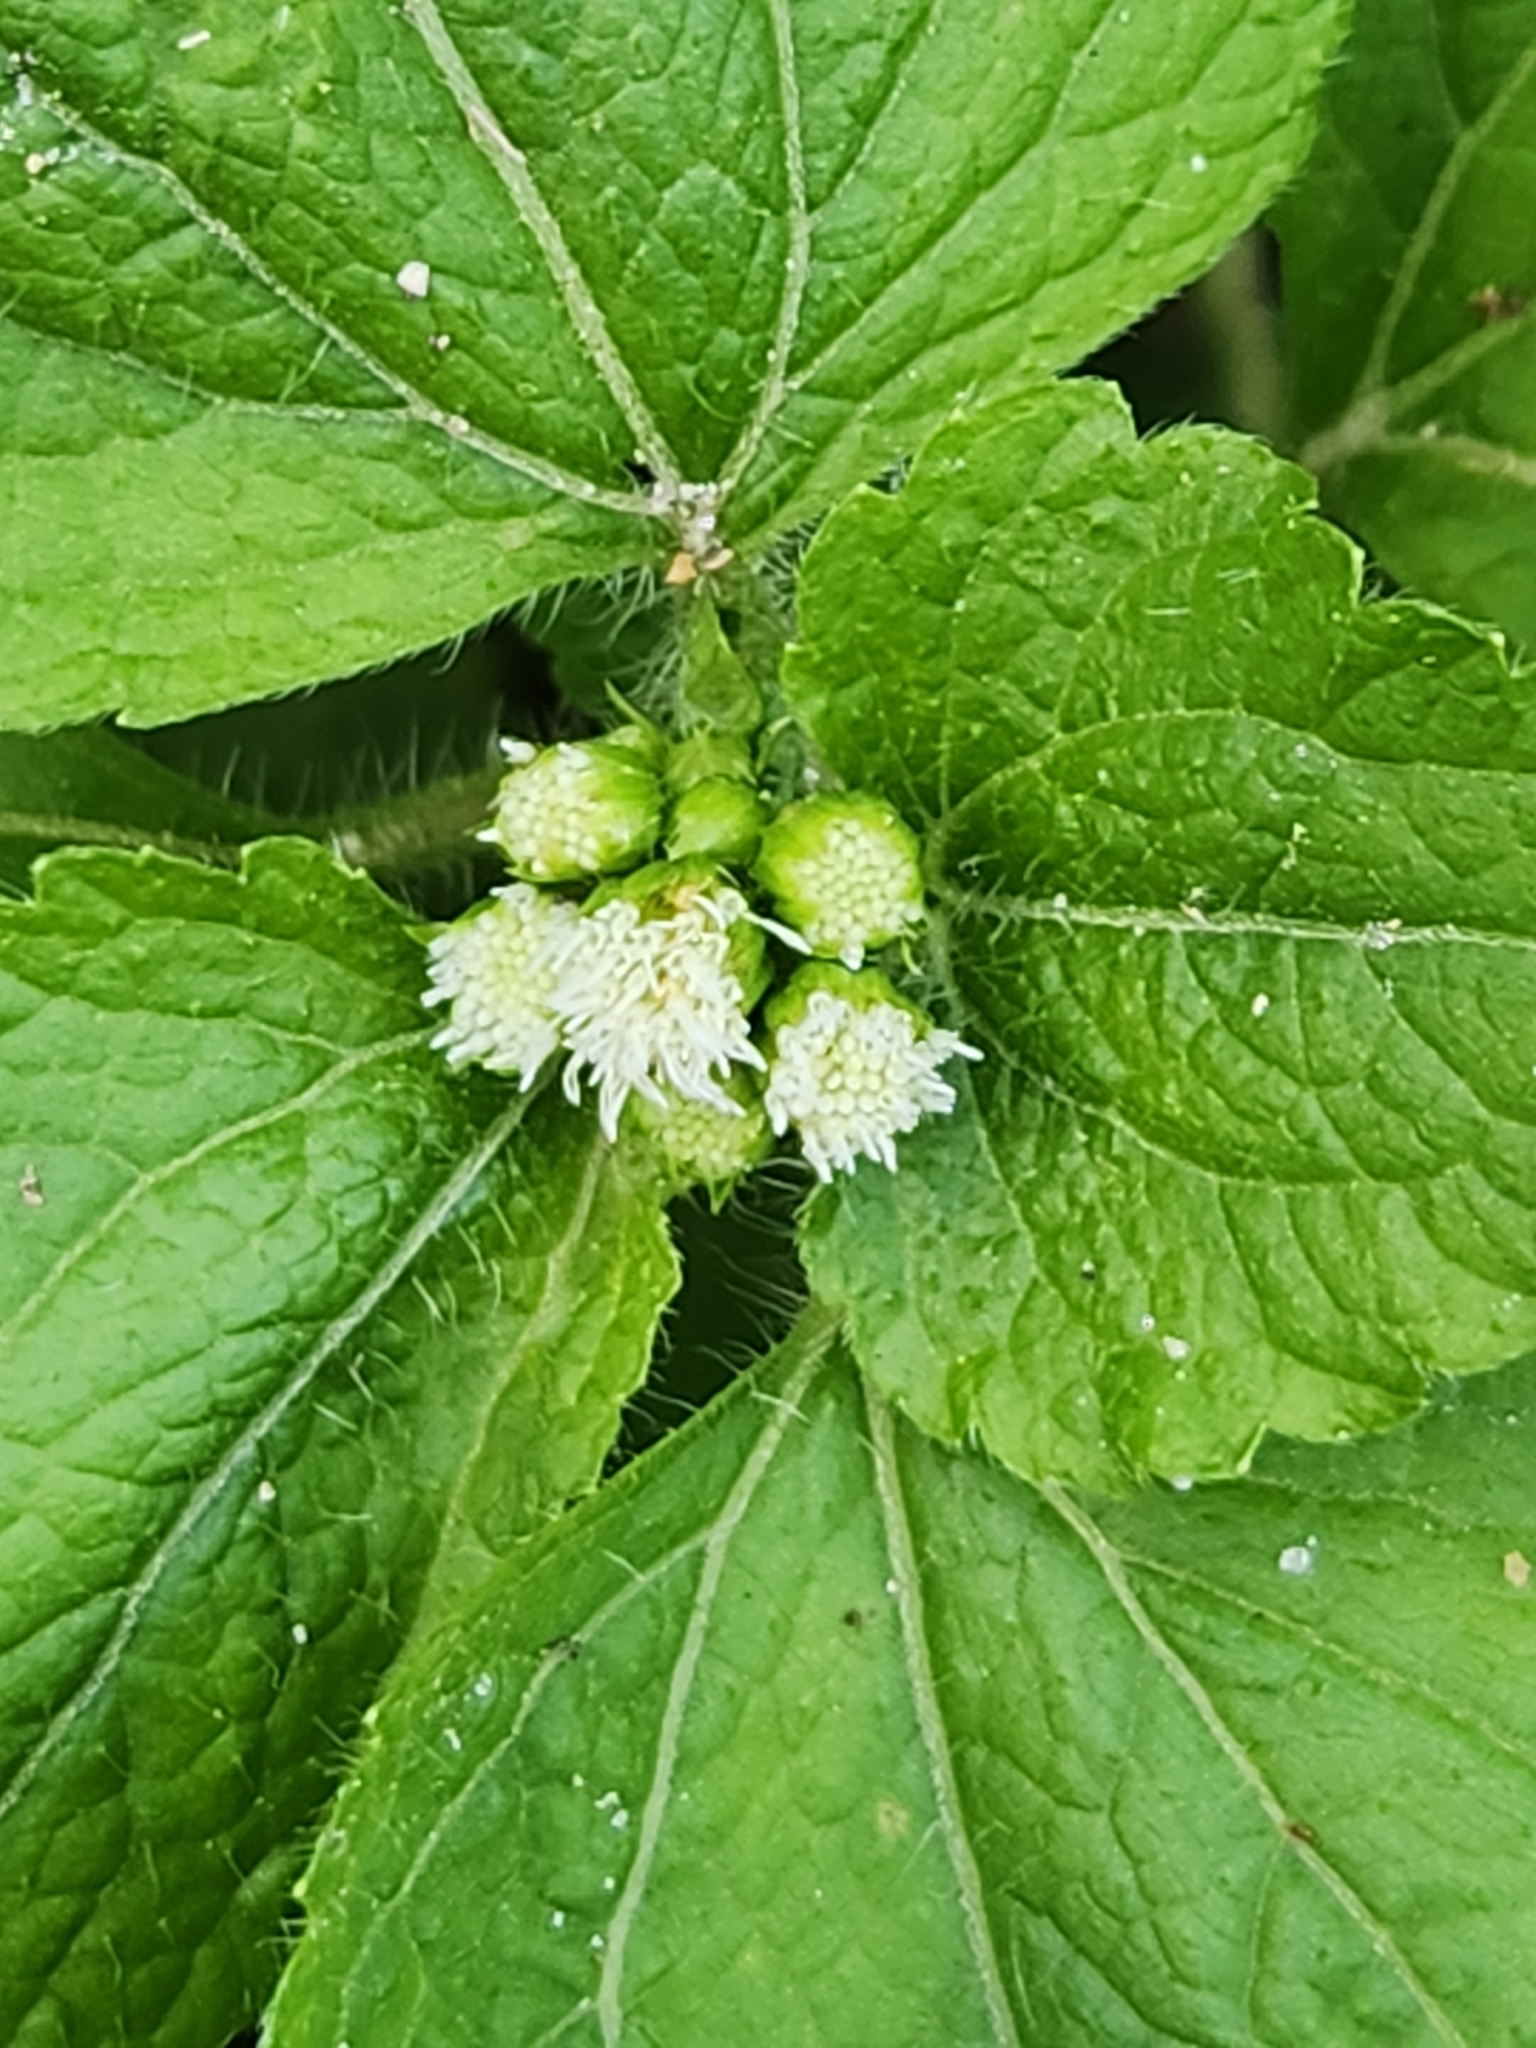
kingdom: Plantae
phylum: Tracheophyta
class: Magnoliopsida
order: Asterales
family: Asteraceae
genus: Ageratum
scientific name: Ageratum conyzoides
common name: Tropical whiteweed
